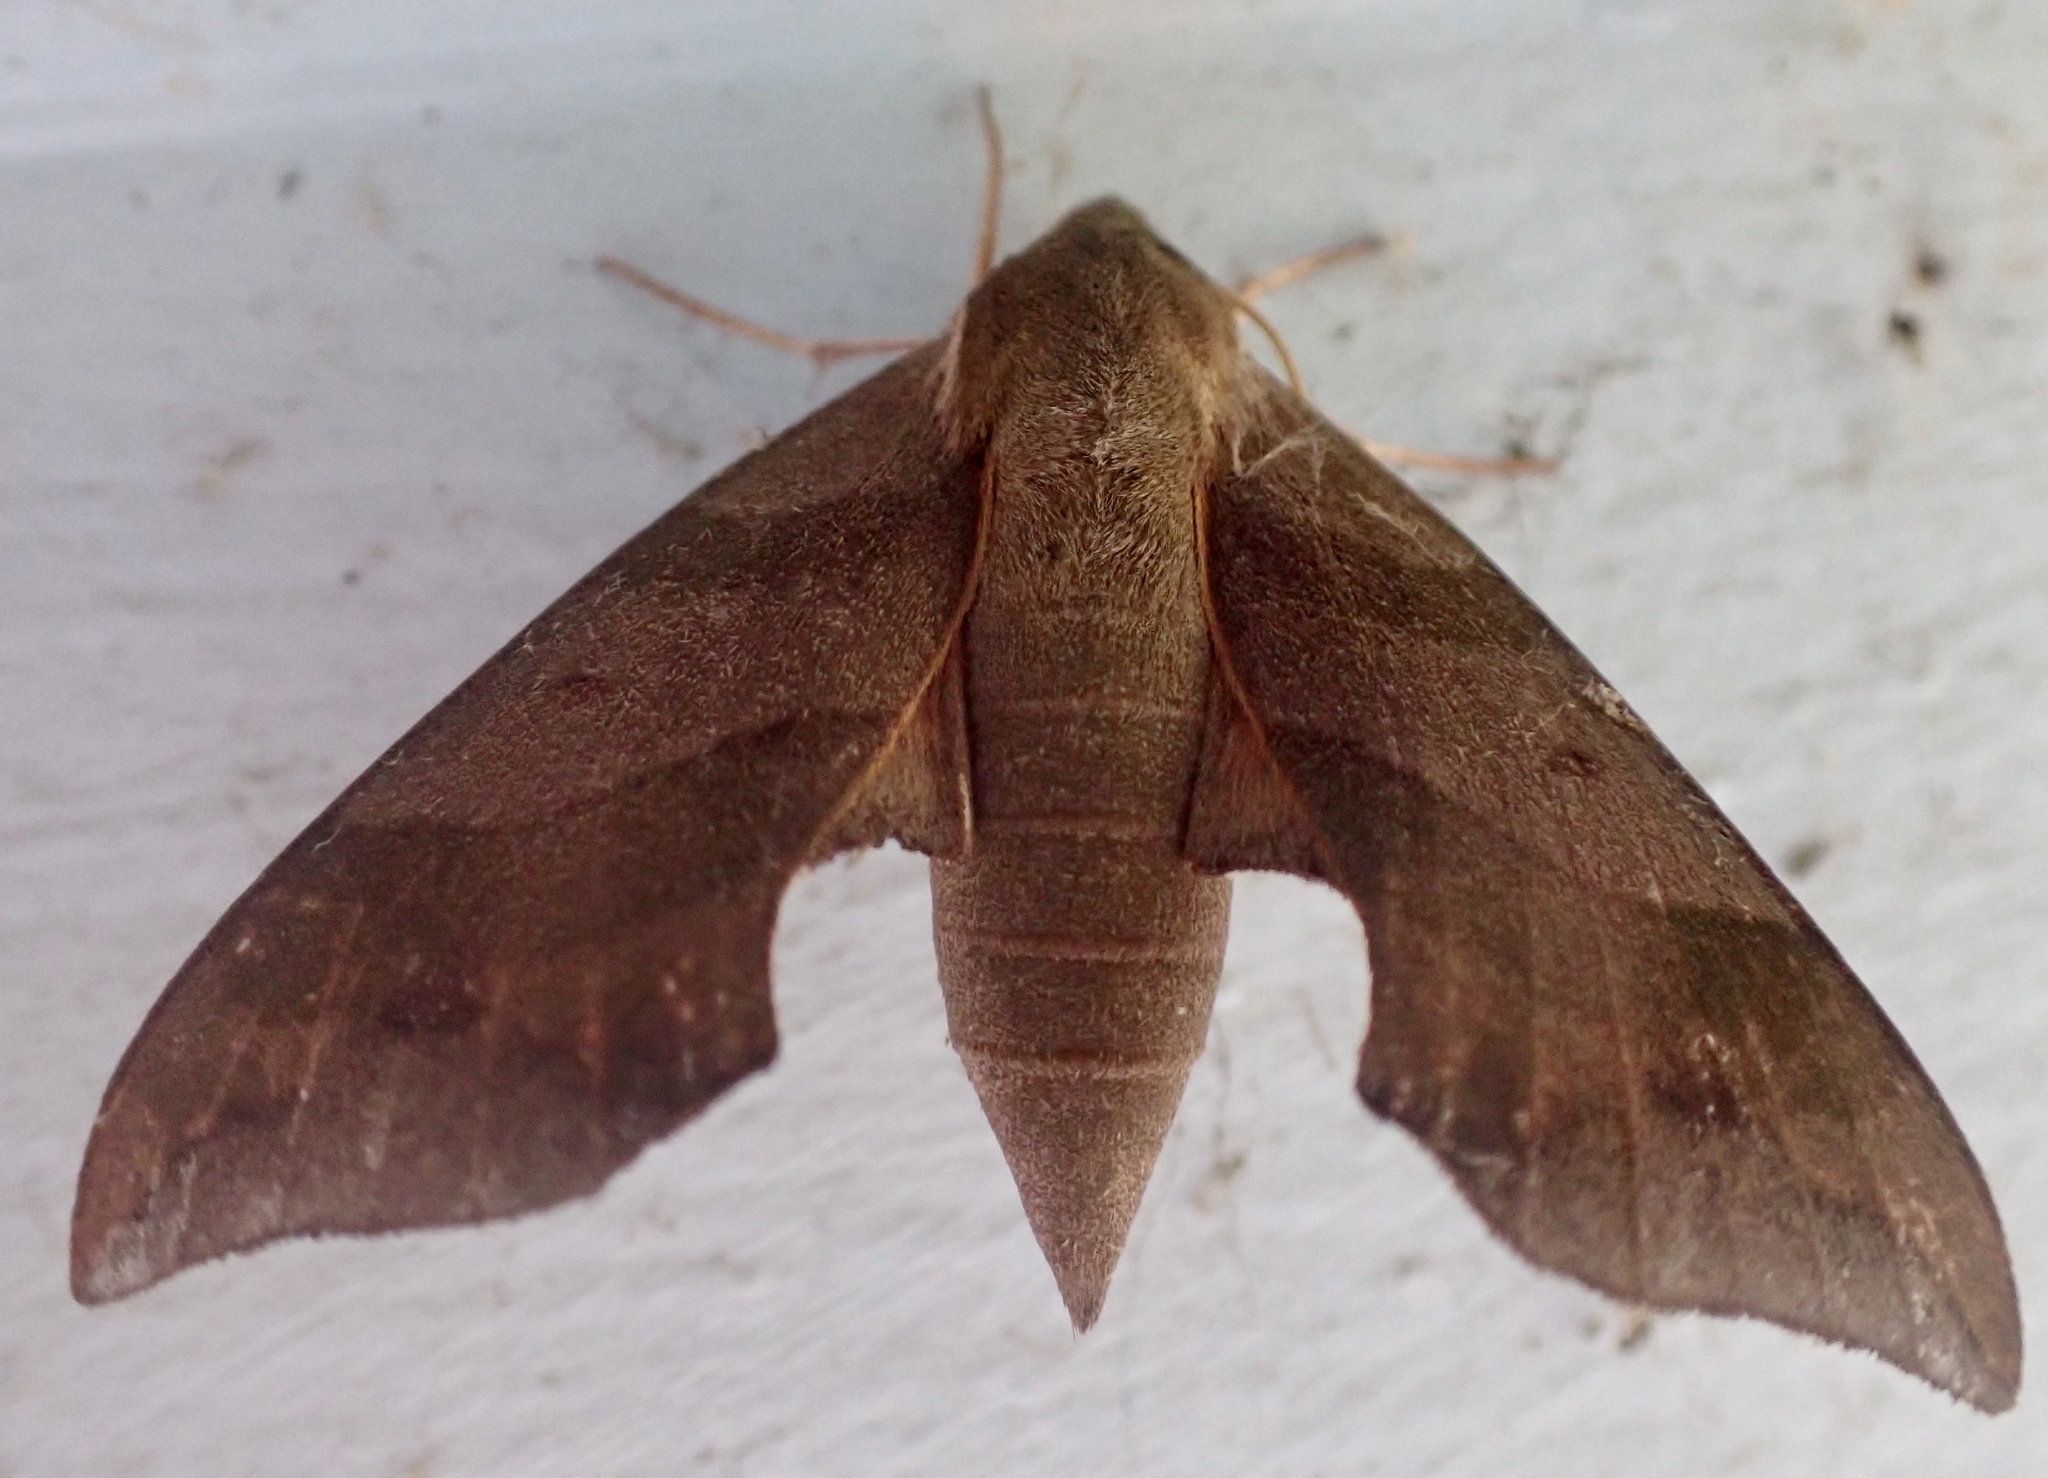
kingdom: Animalia
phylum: Arthropoda
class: Insecta
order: Lepidoptera
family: Sphingidae
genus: Darapsa
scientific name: Darapsa myron
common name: Hog sphinx
